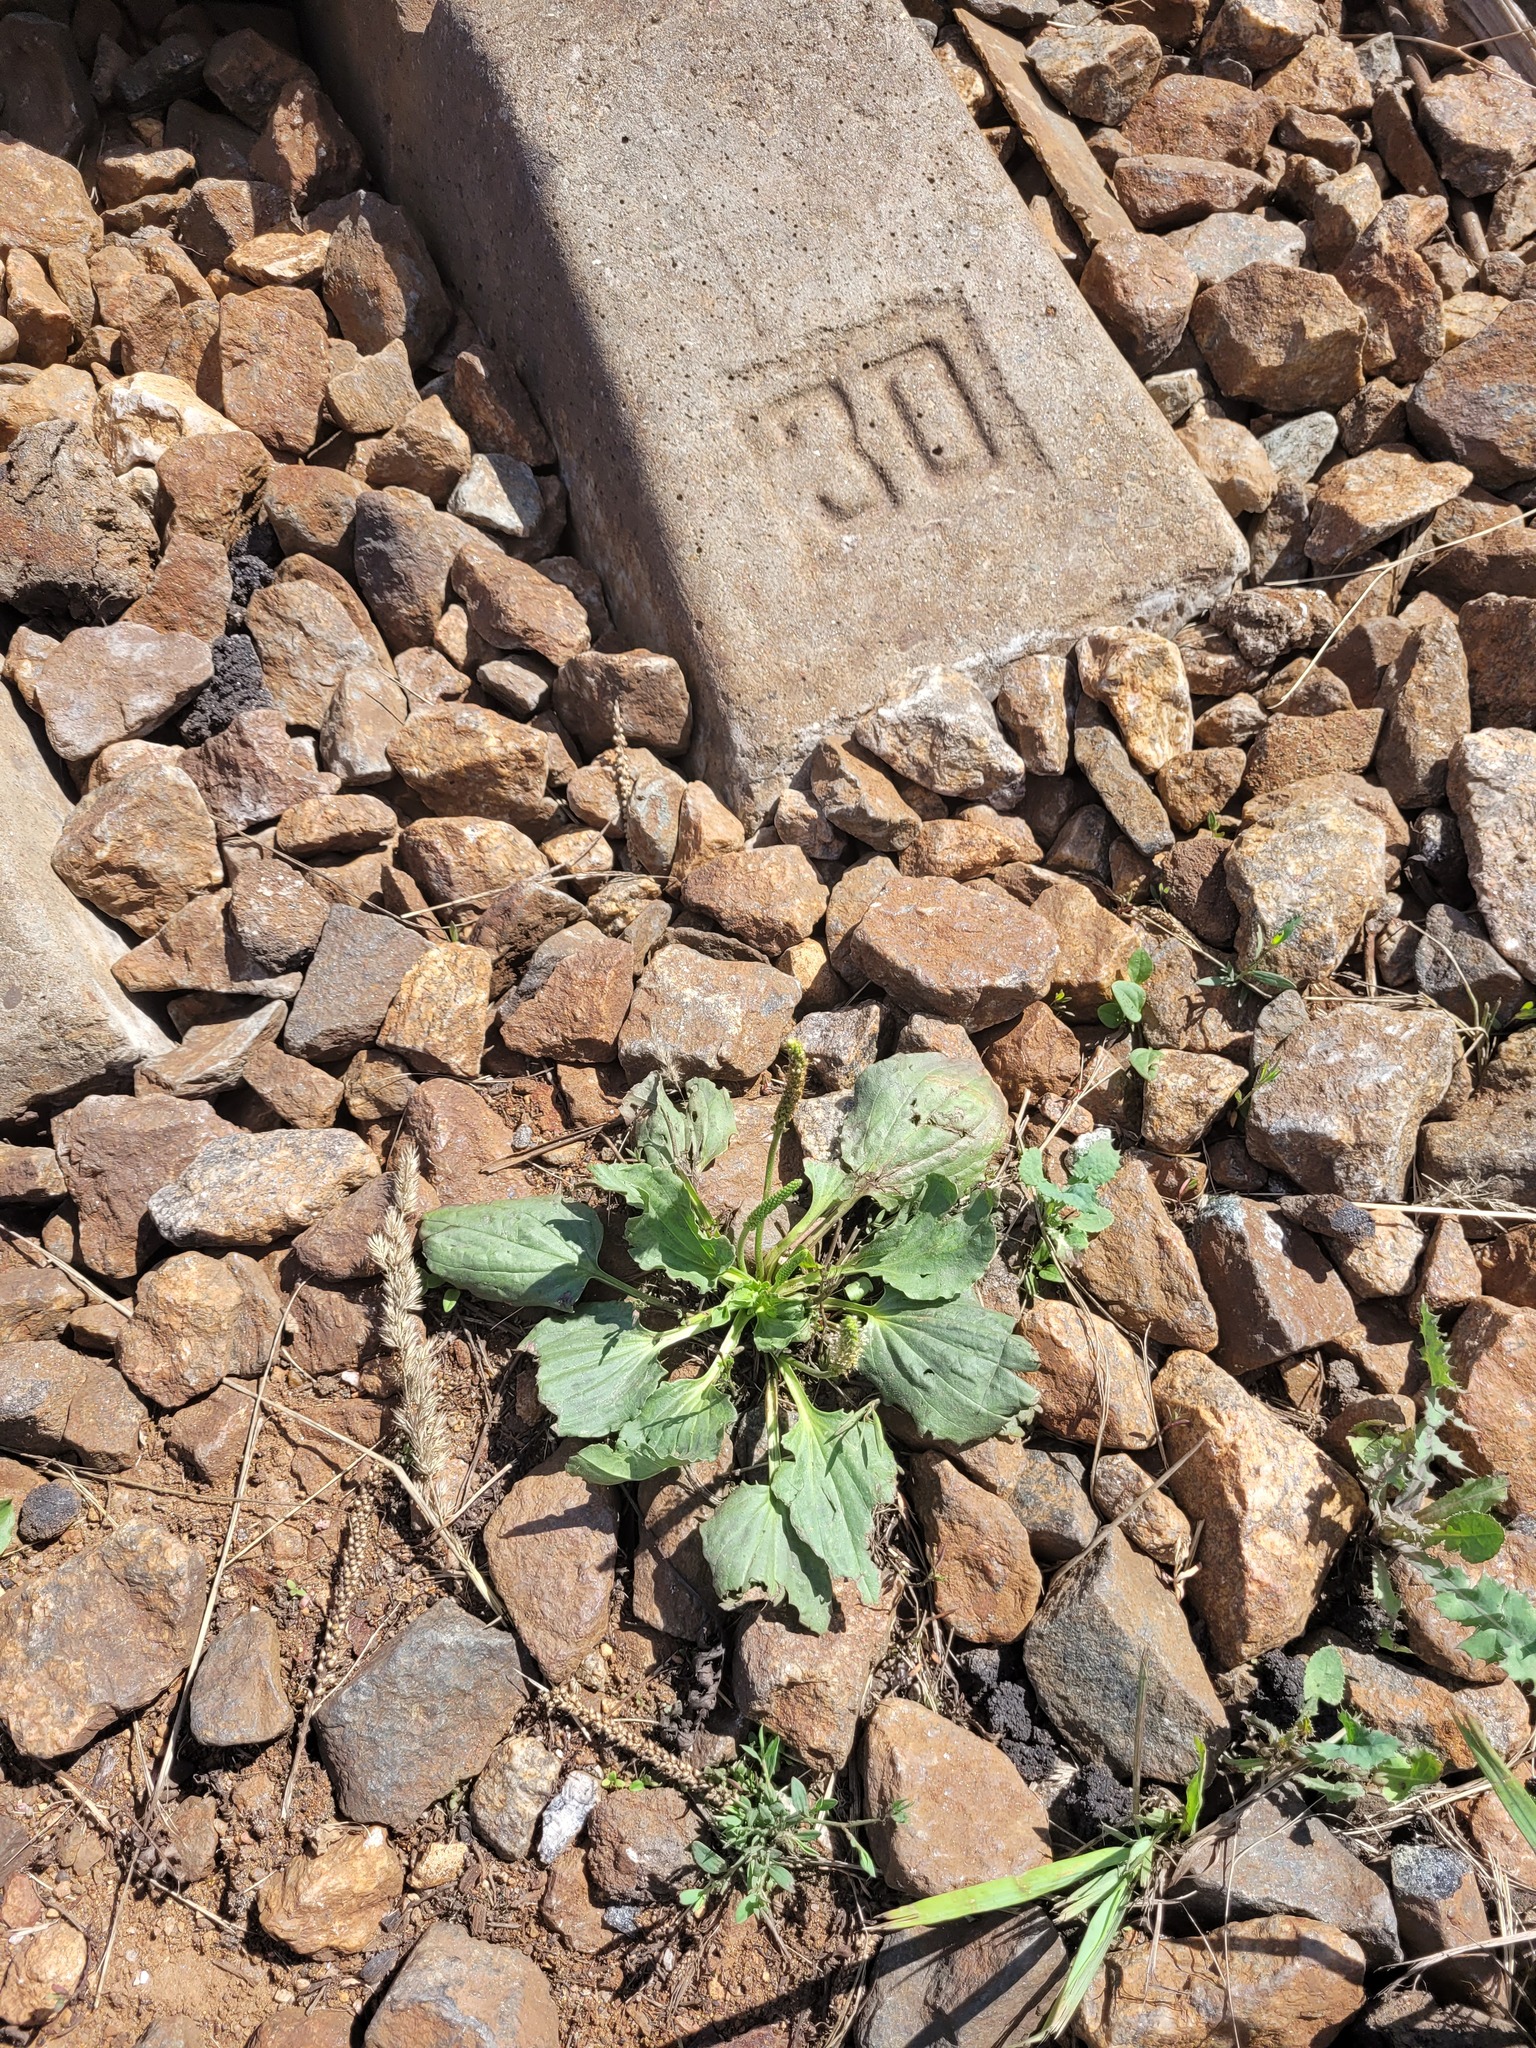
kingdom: Plantae
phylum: Tracheophyta
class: Magnoliopsida
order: Lamiales
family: Plantaginaceae
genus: Plantago
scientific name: Plantago major
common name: Common plantain
